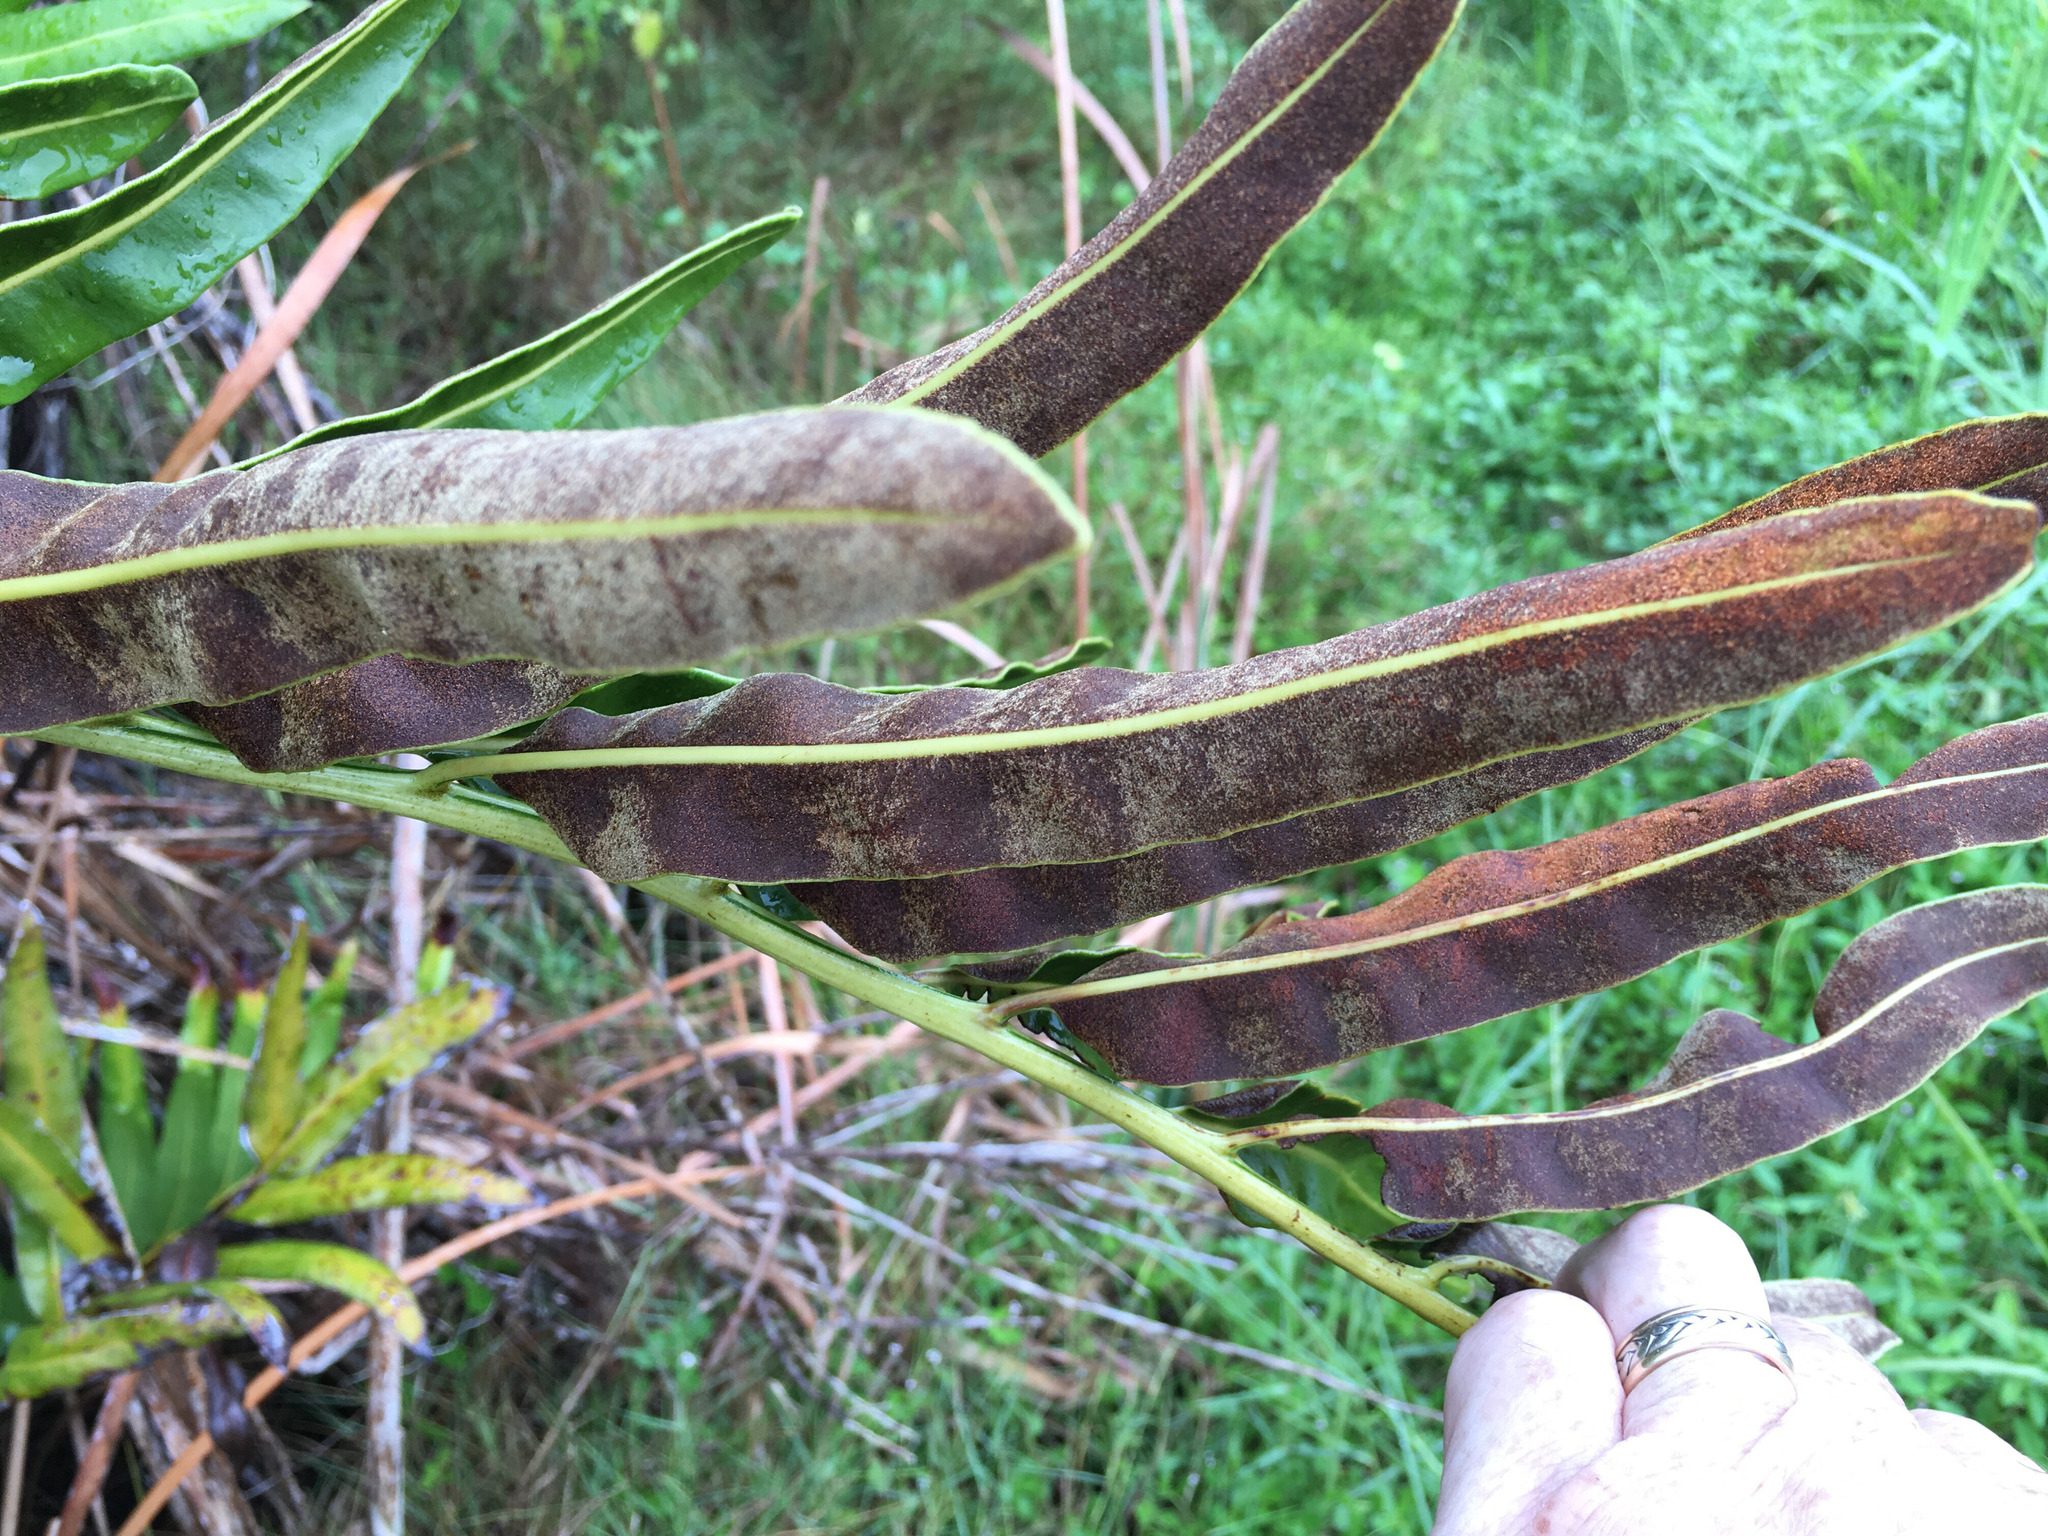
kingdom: Plantae
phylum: Tracheophyta
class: Polypodiopsida
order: Polypodiales
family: Pteridaceae
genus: Acrostichum
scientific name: Acrostichum danaeifolium
